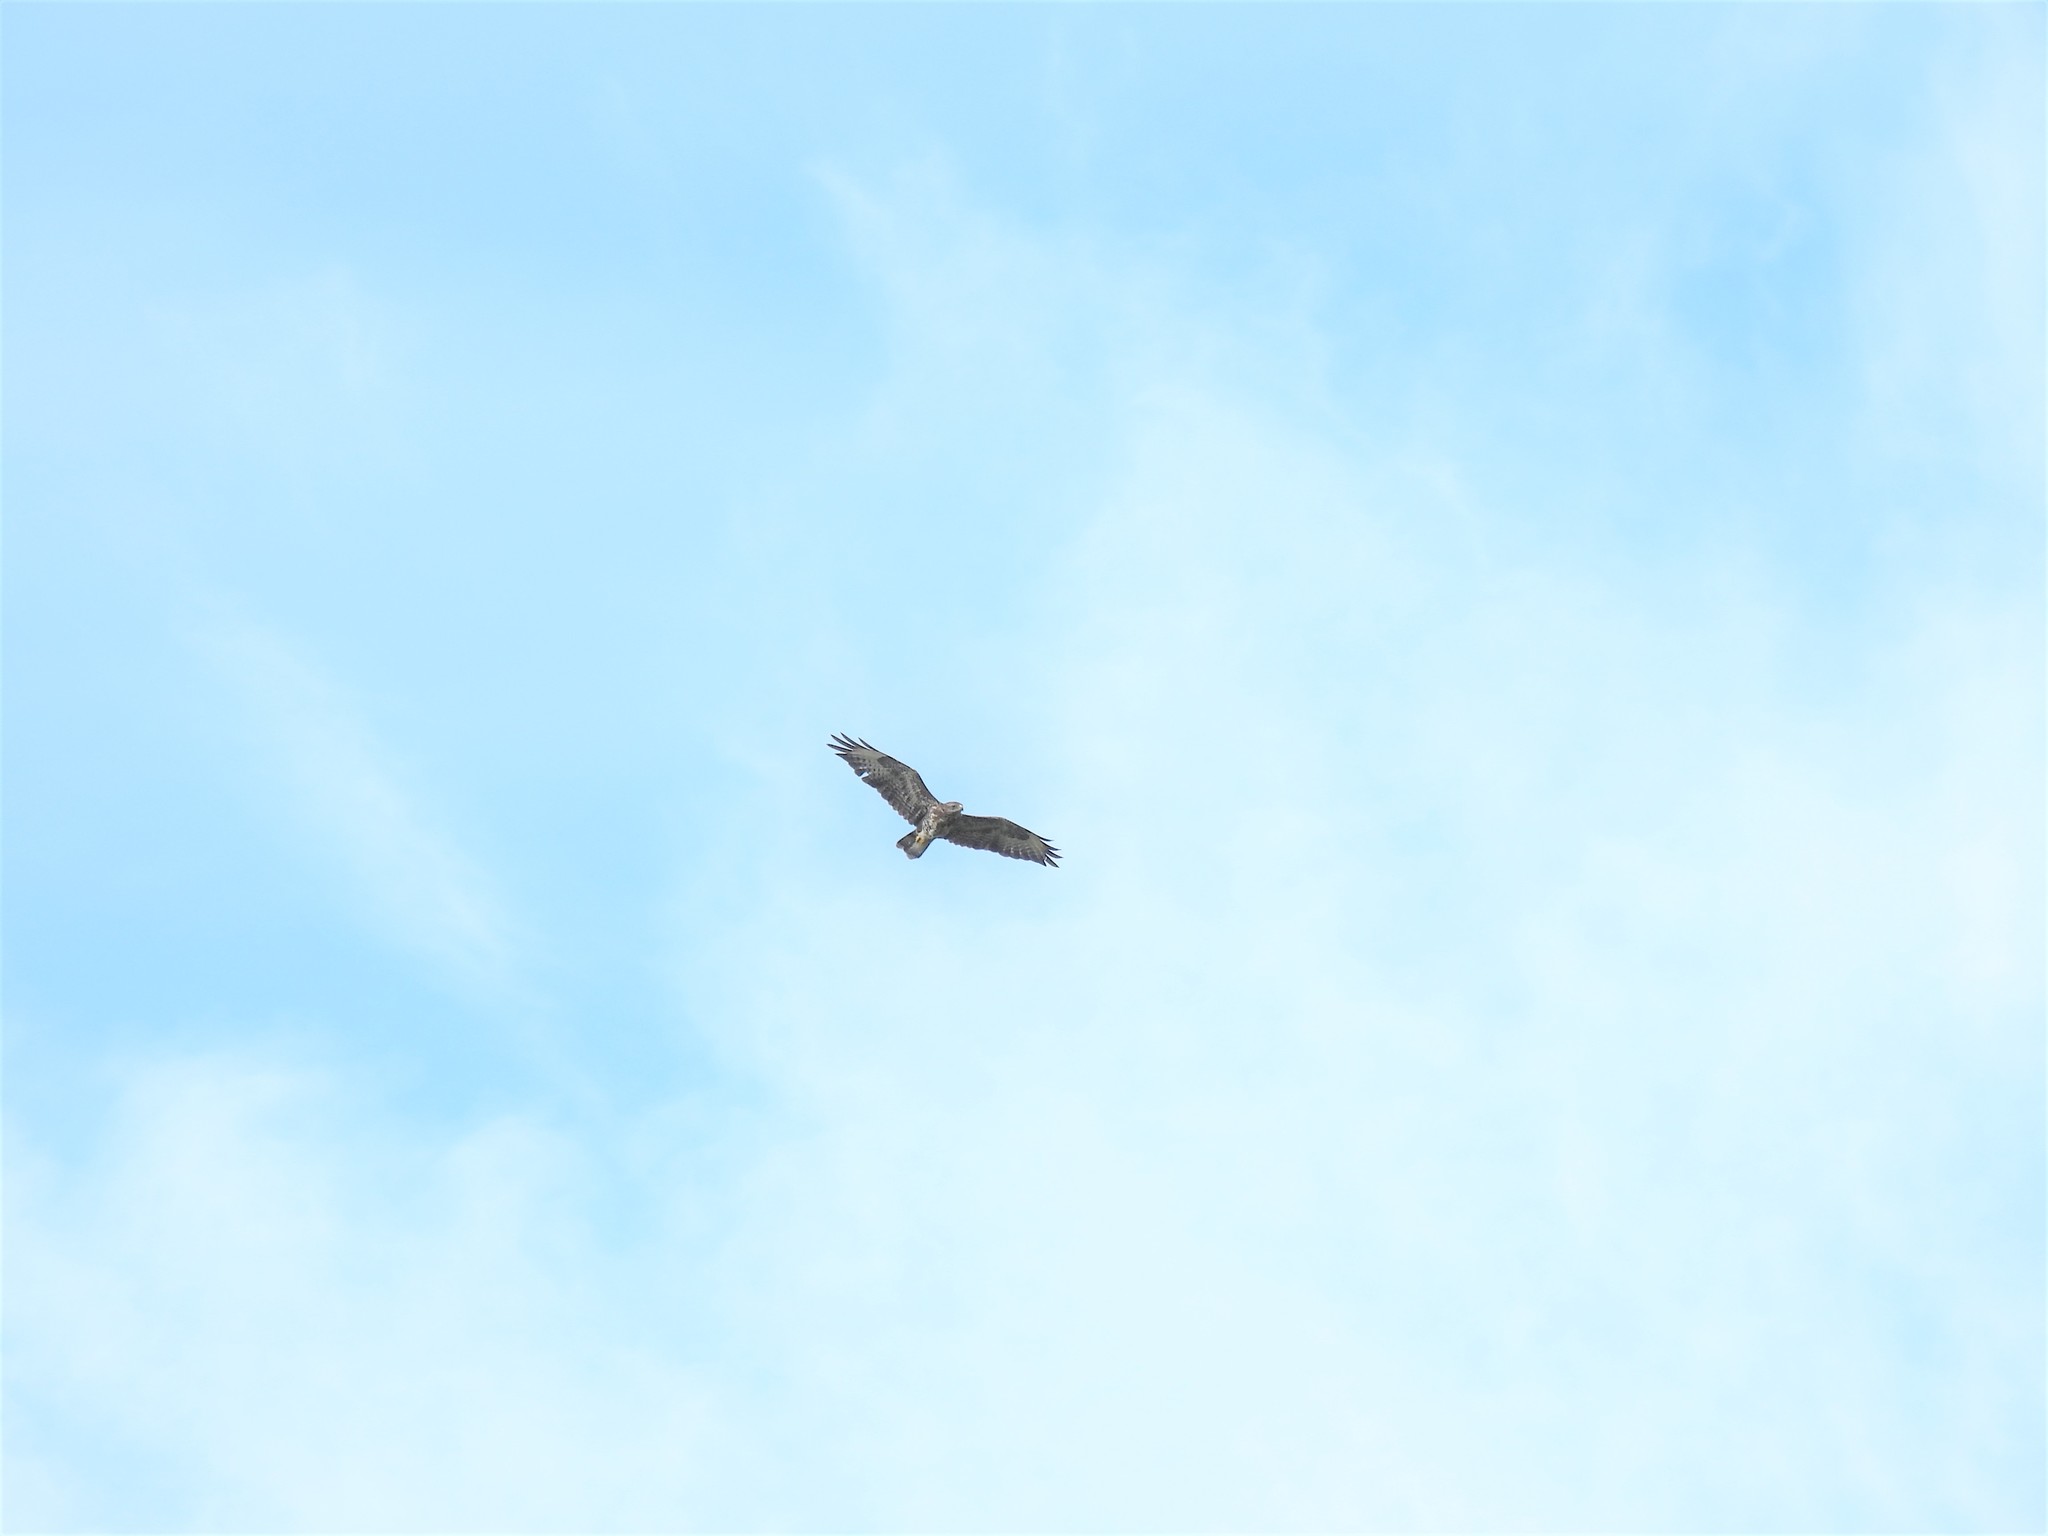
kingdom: Animalia
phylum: Chordata
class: Aves
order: Accipitriformes
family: Accipitridae
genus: Buteo
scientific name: Buteo buteo
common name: Common buzzard
